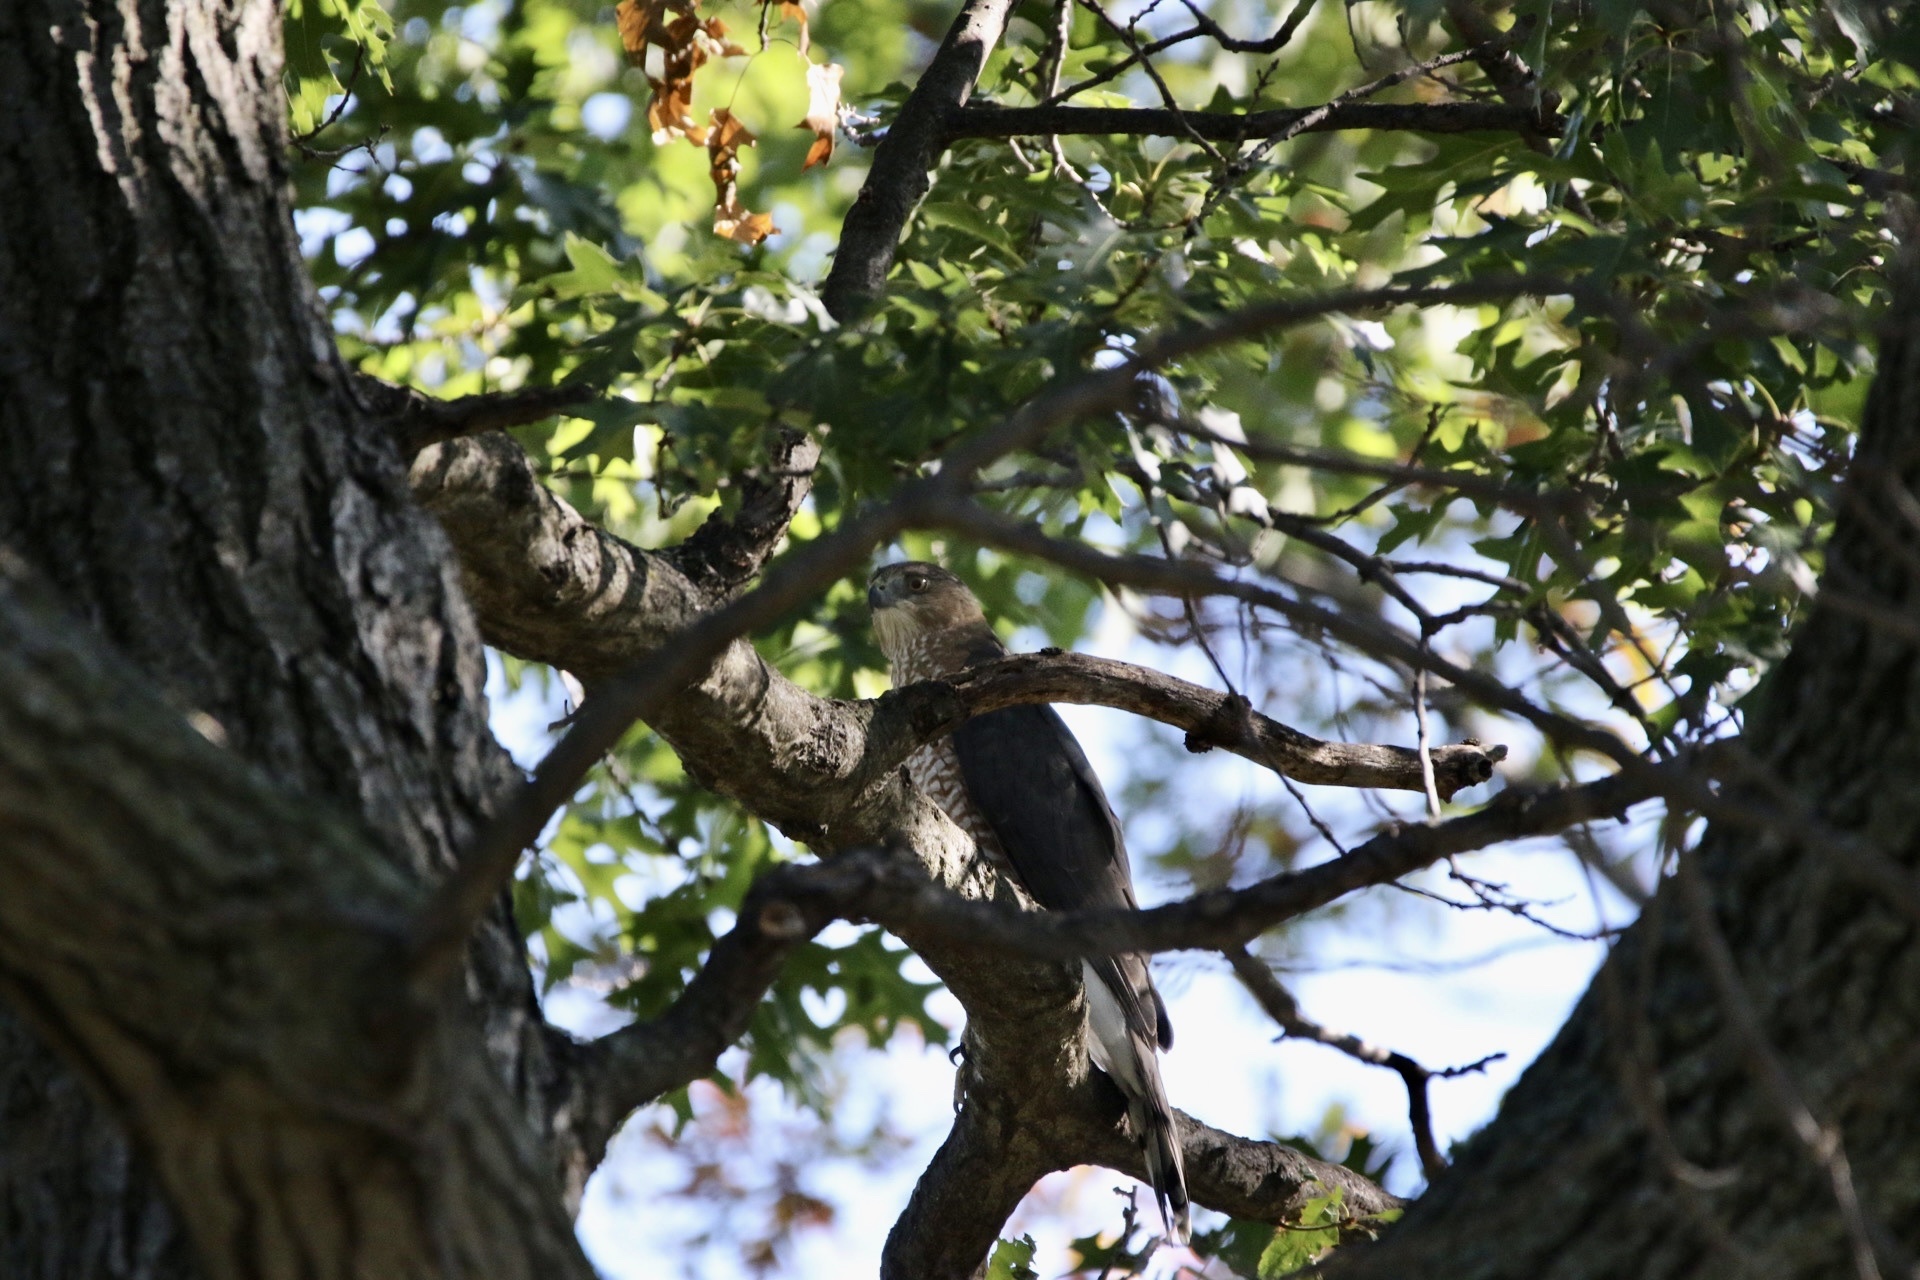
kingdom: Animalia
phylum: Chordata
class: Aves
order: Accipitriformes
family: Accipitridae
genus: Accipiter
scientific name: Accipiter cooperii
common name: Cooper's hawk
